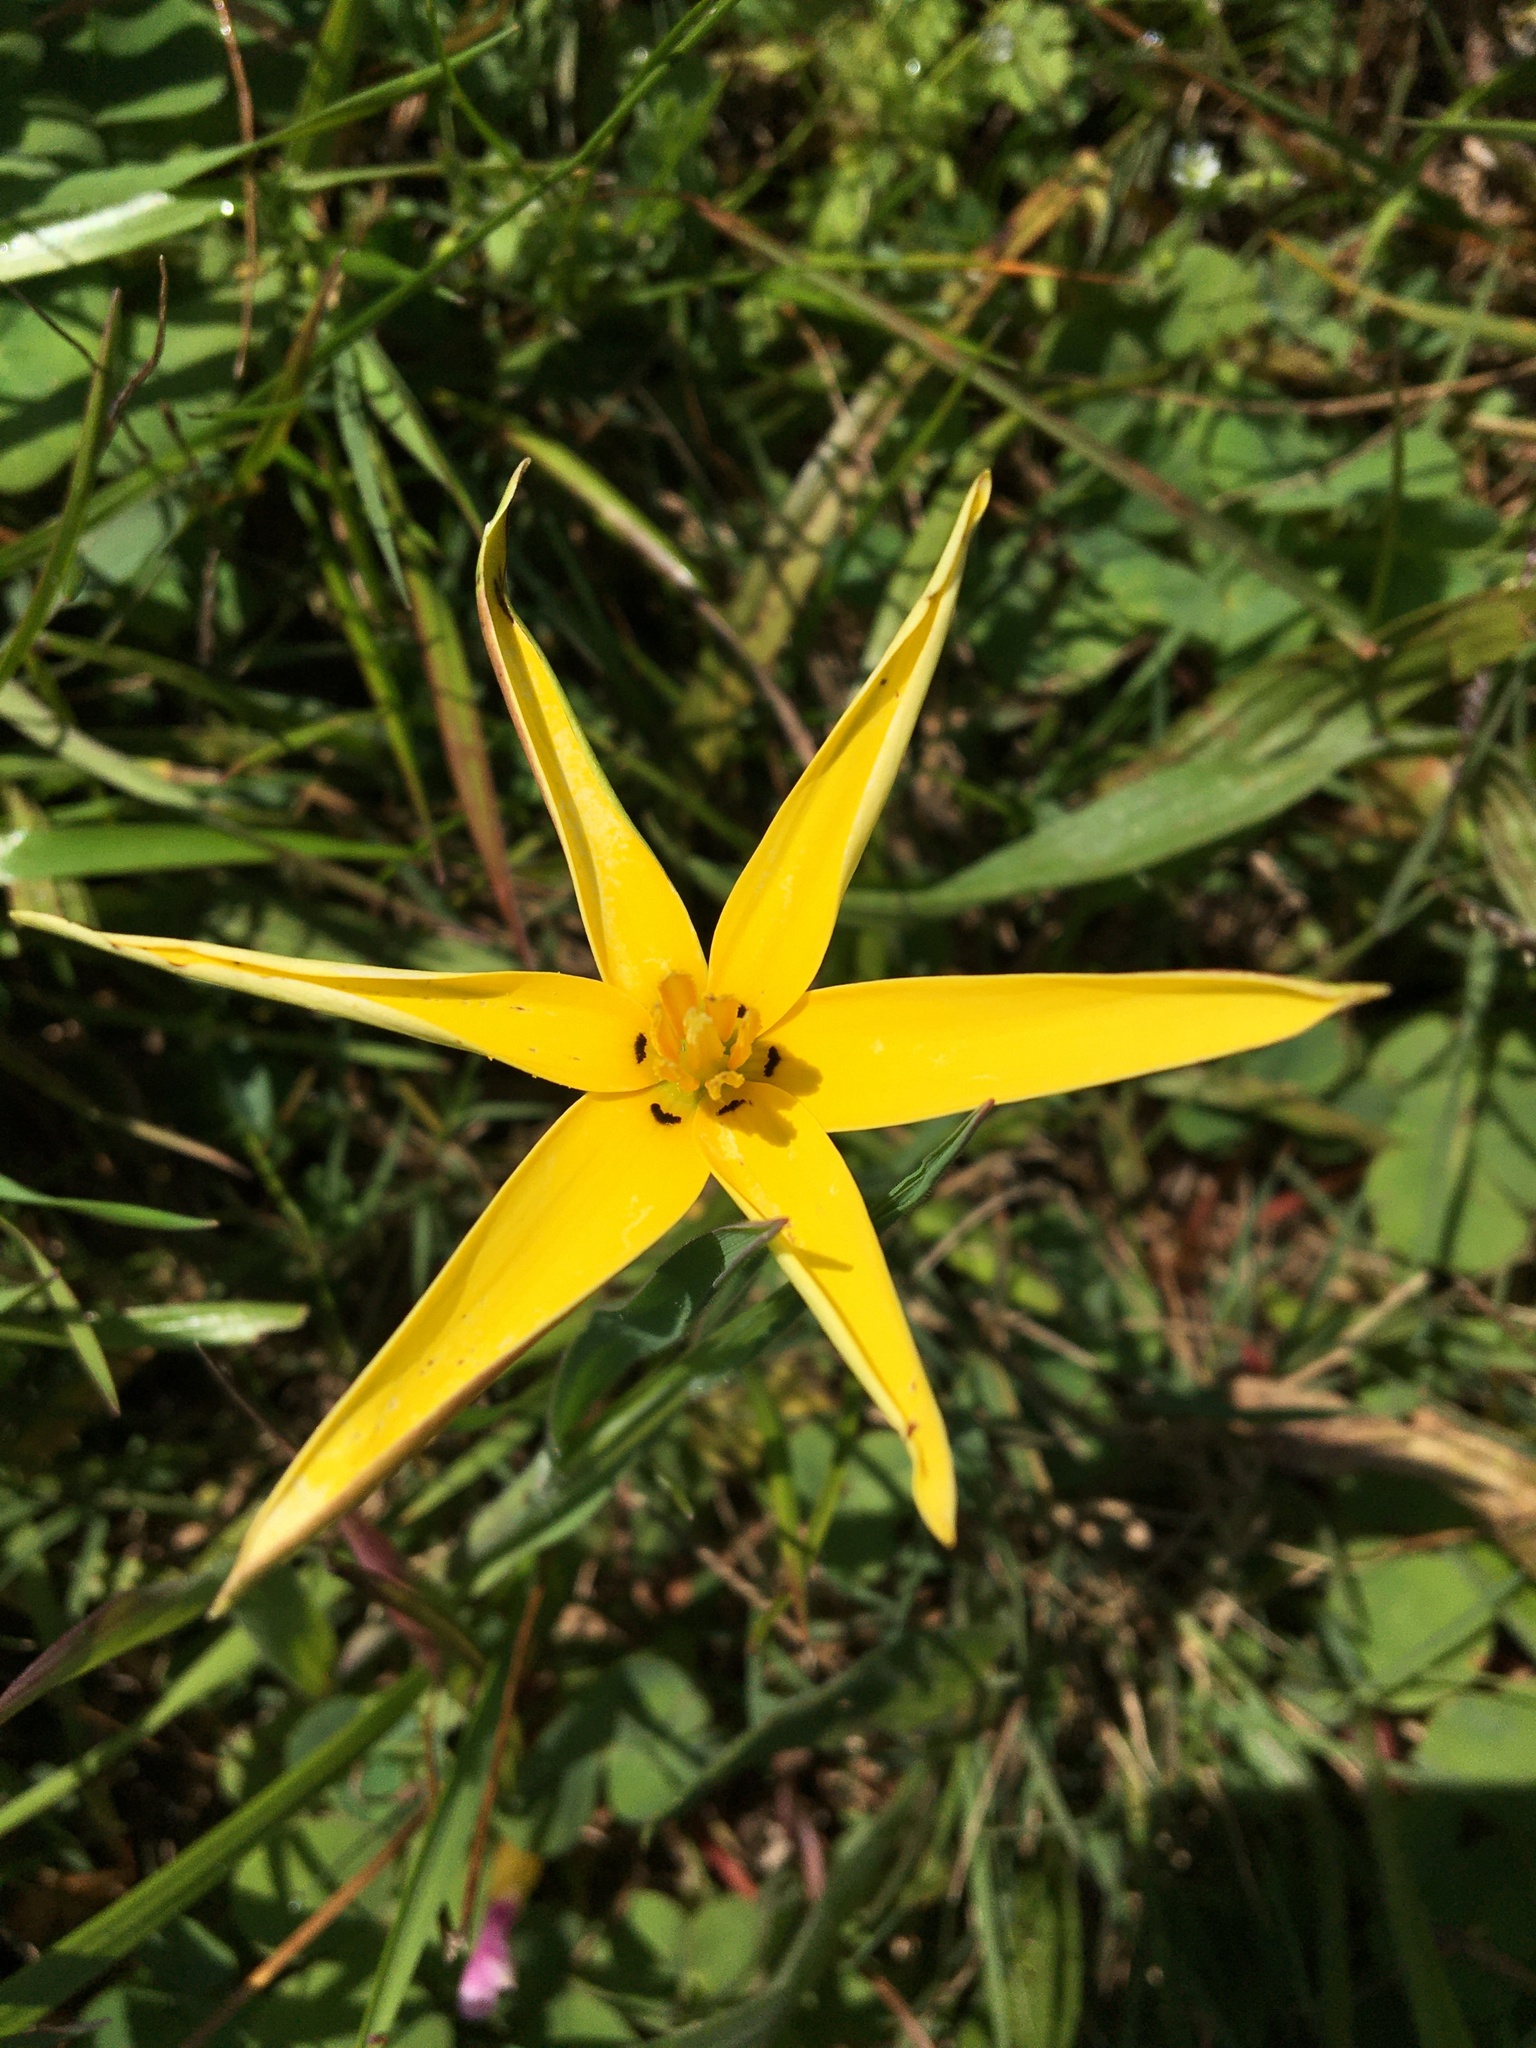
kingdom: Plantae
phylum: Tracheophyta
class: Liliopsida
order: Asparagales
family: Hypoxidaceae
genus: Pauridia
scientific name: Pauridia capensis
